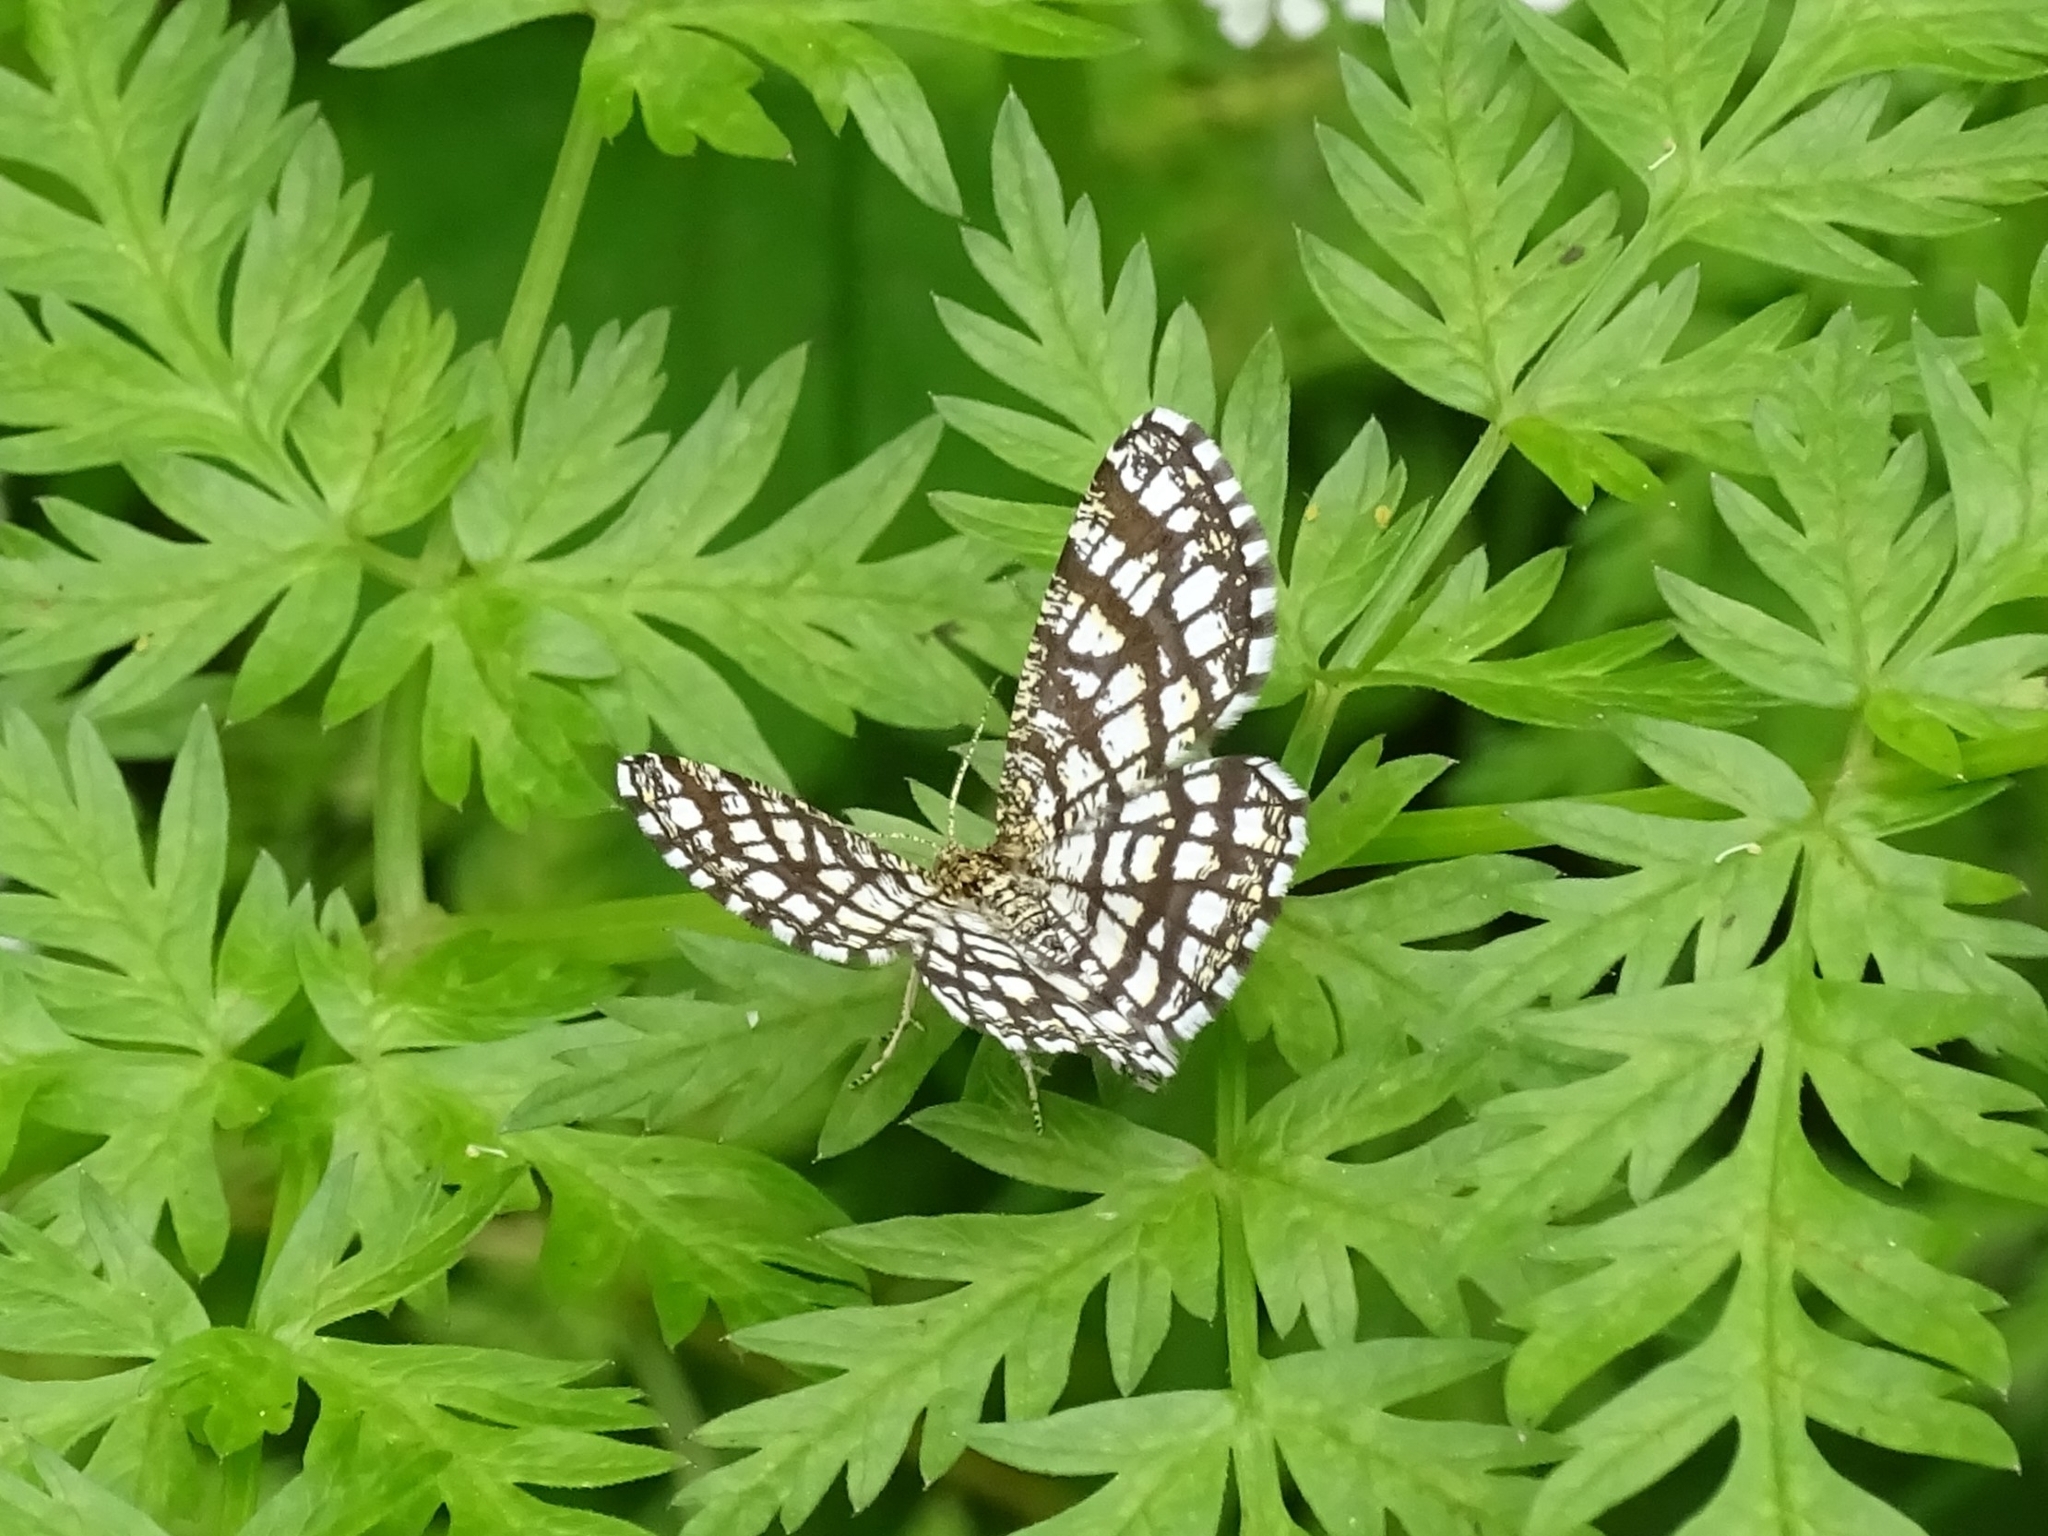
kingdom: Animalia
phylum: Arthropoda
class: Insecta
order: Lepidoptera
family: Geometridae
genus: Chiasmia
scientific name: Chiasmia clathrata
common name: Latticed heath
